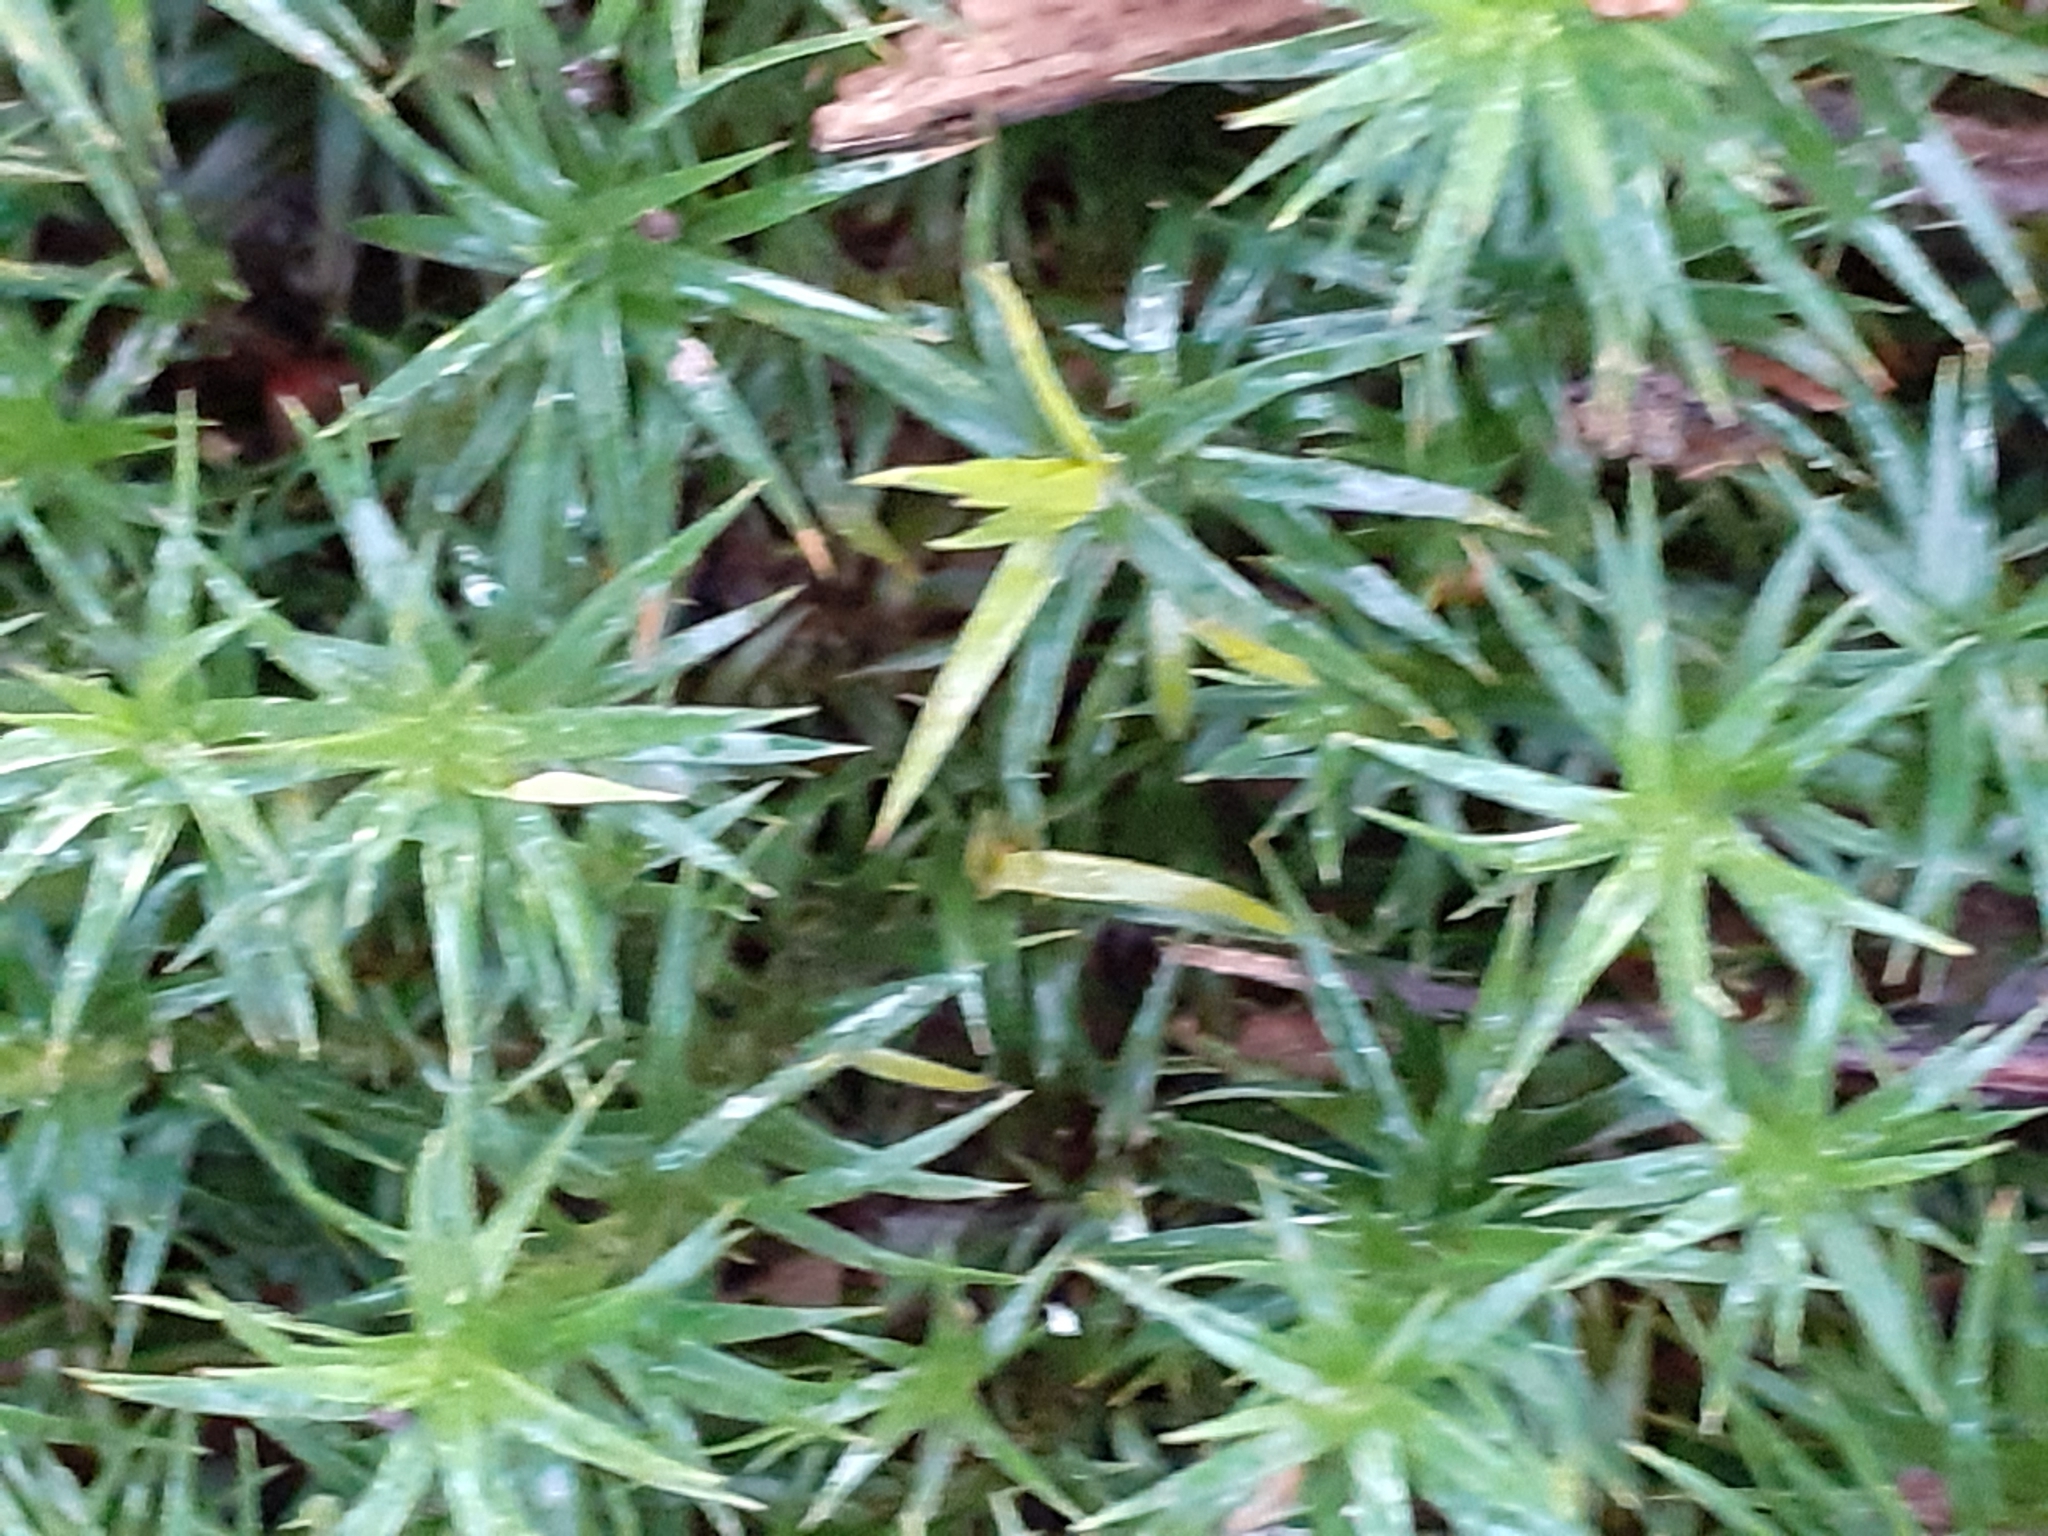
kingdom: Plantae
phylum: Bryophyta
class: Polytrichopsida
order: Polytrichales
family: Polytrichaceae
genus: Polytrichum
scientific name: Polytrichum formosum
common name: Bank haircap moss
